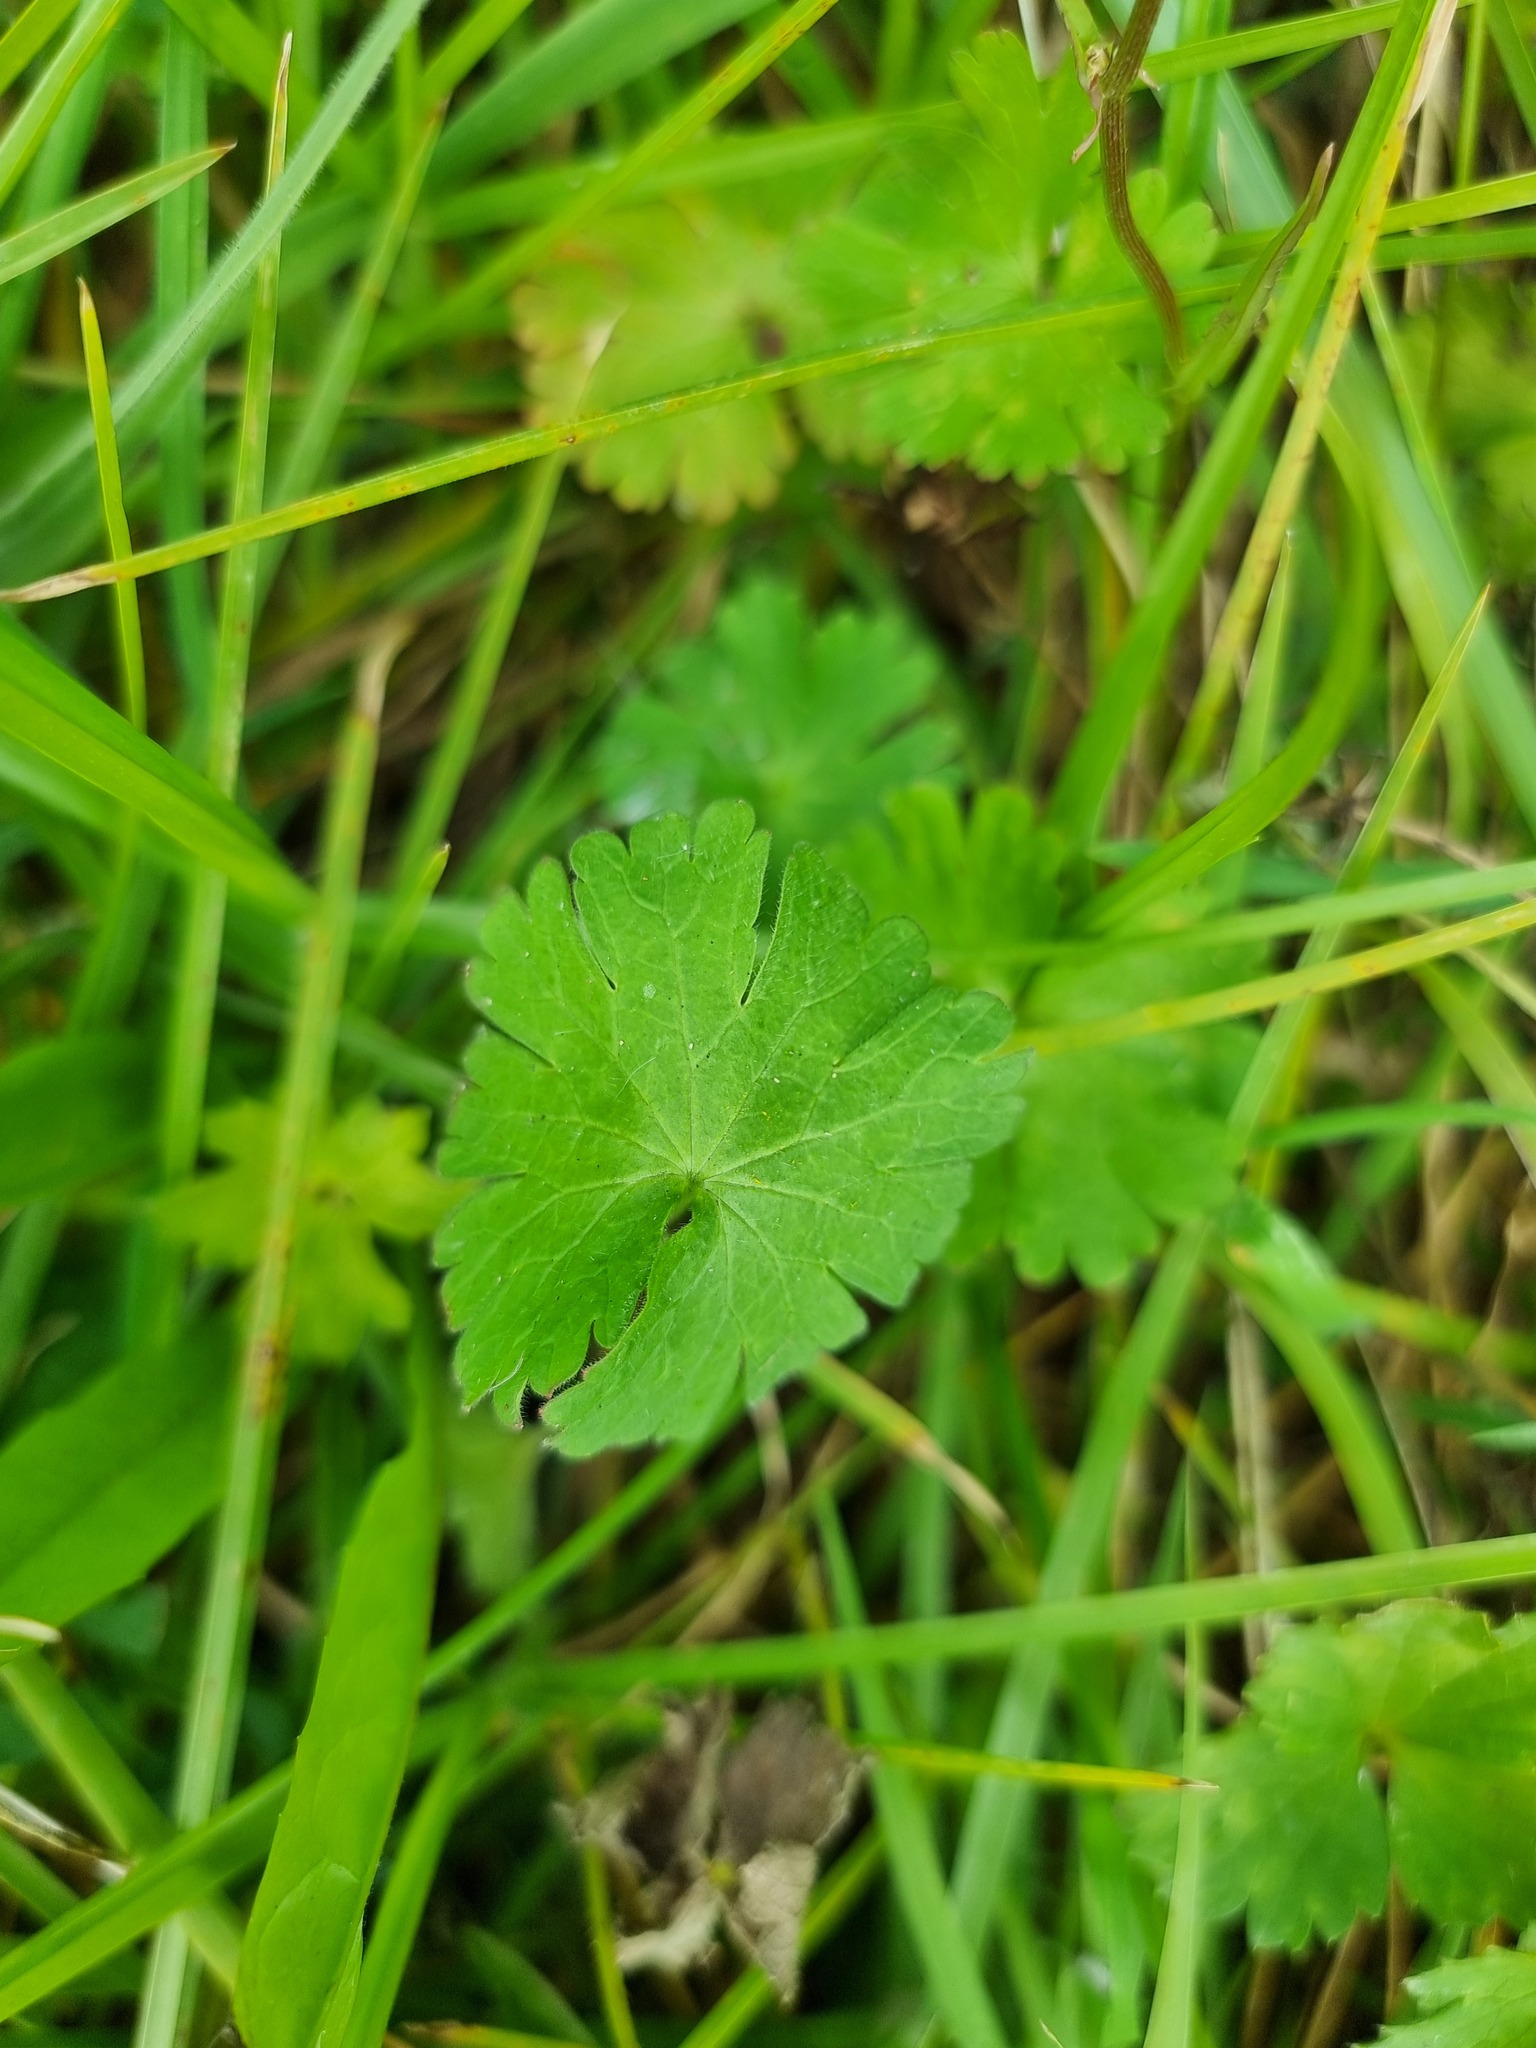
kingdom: Plantae
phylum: Tracheophyta
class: Magnoliopsida
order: Geraniales
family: Geraniaceae
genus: Geranium
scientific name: Geranium molle
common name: Dove's-foot crane's-bill
